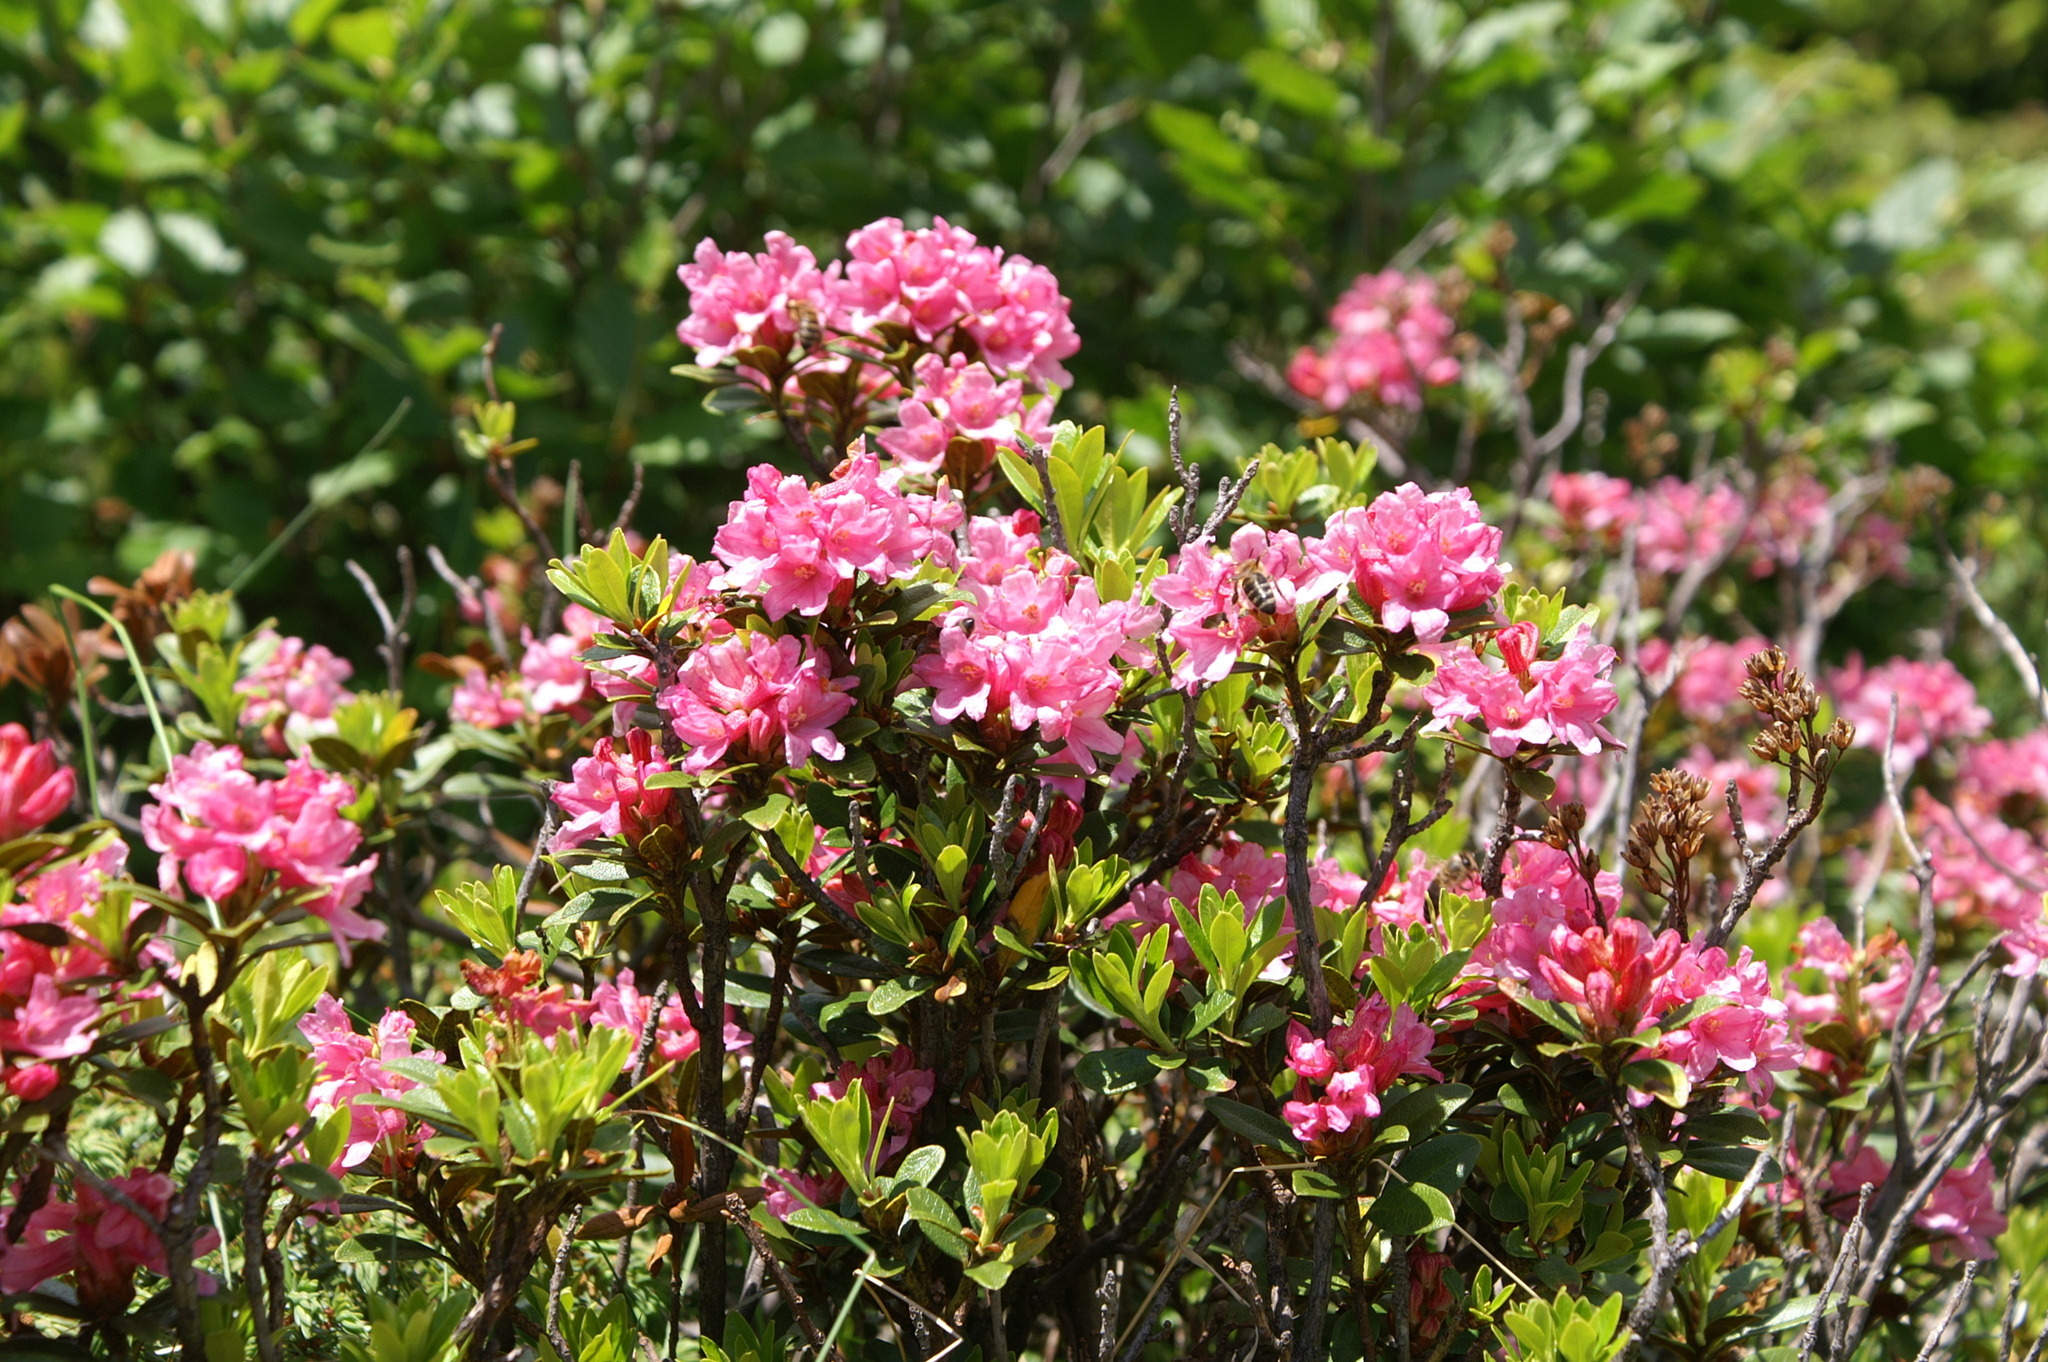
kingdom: Plantae
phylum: Tracheophyta
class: Magnoliopsida
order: Ericales
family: Ericaceae
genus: Rhododendron
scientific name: Rhododendron ferrugineum
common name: Alpenrose
